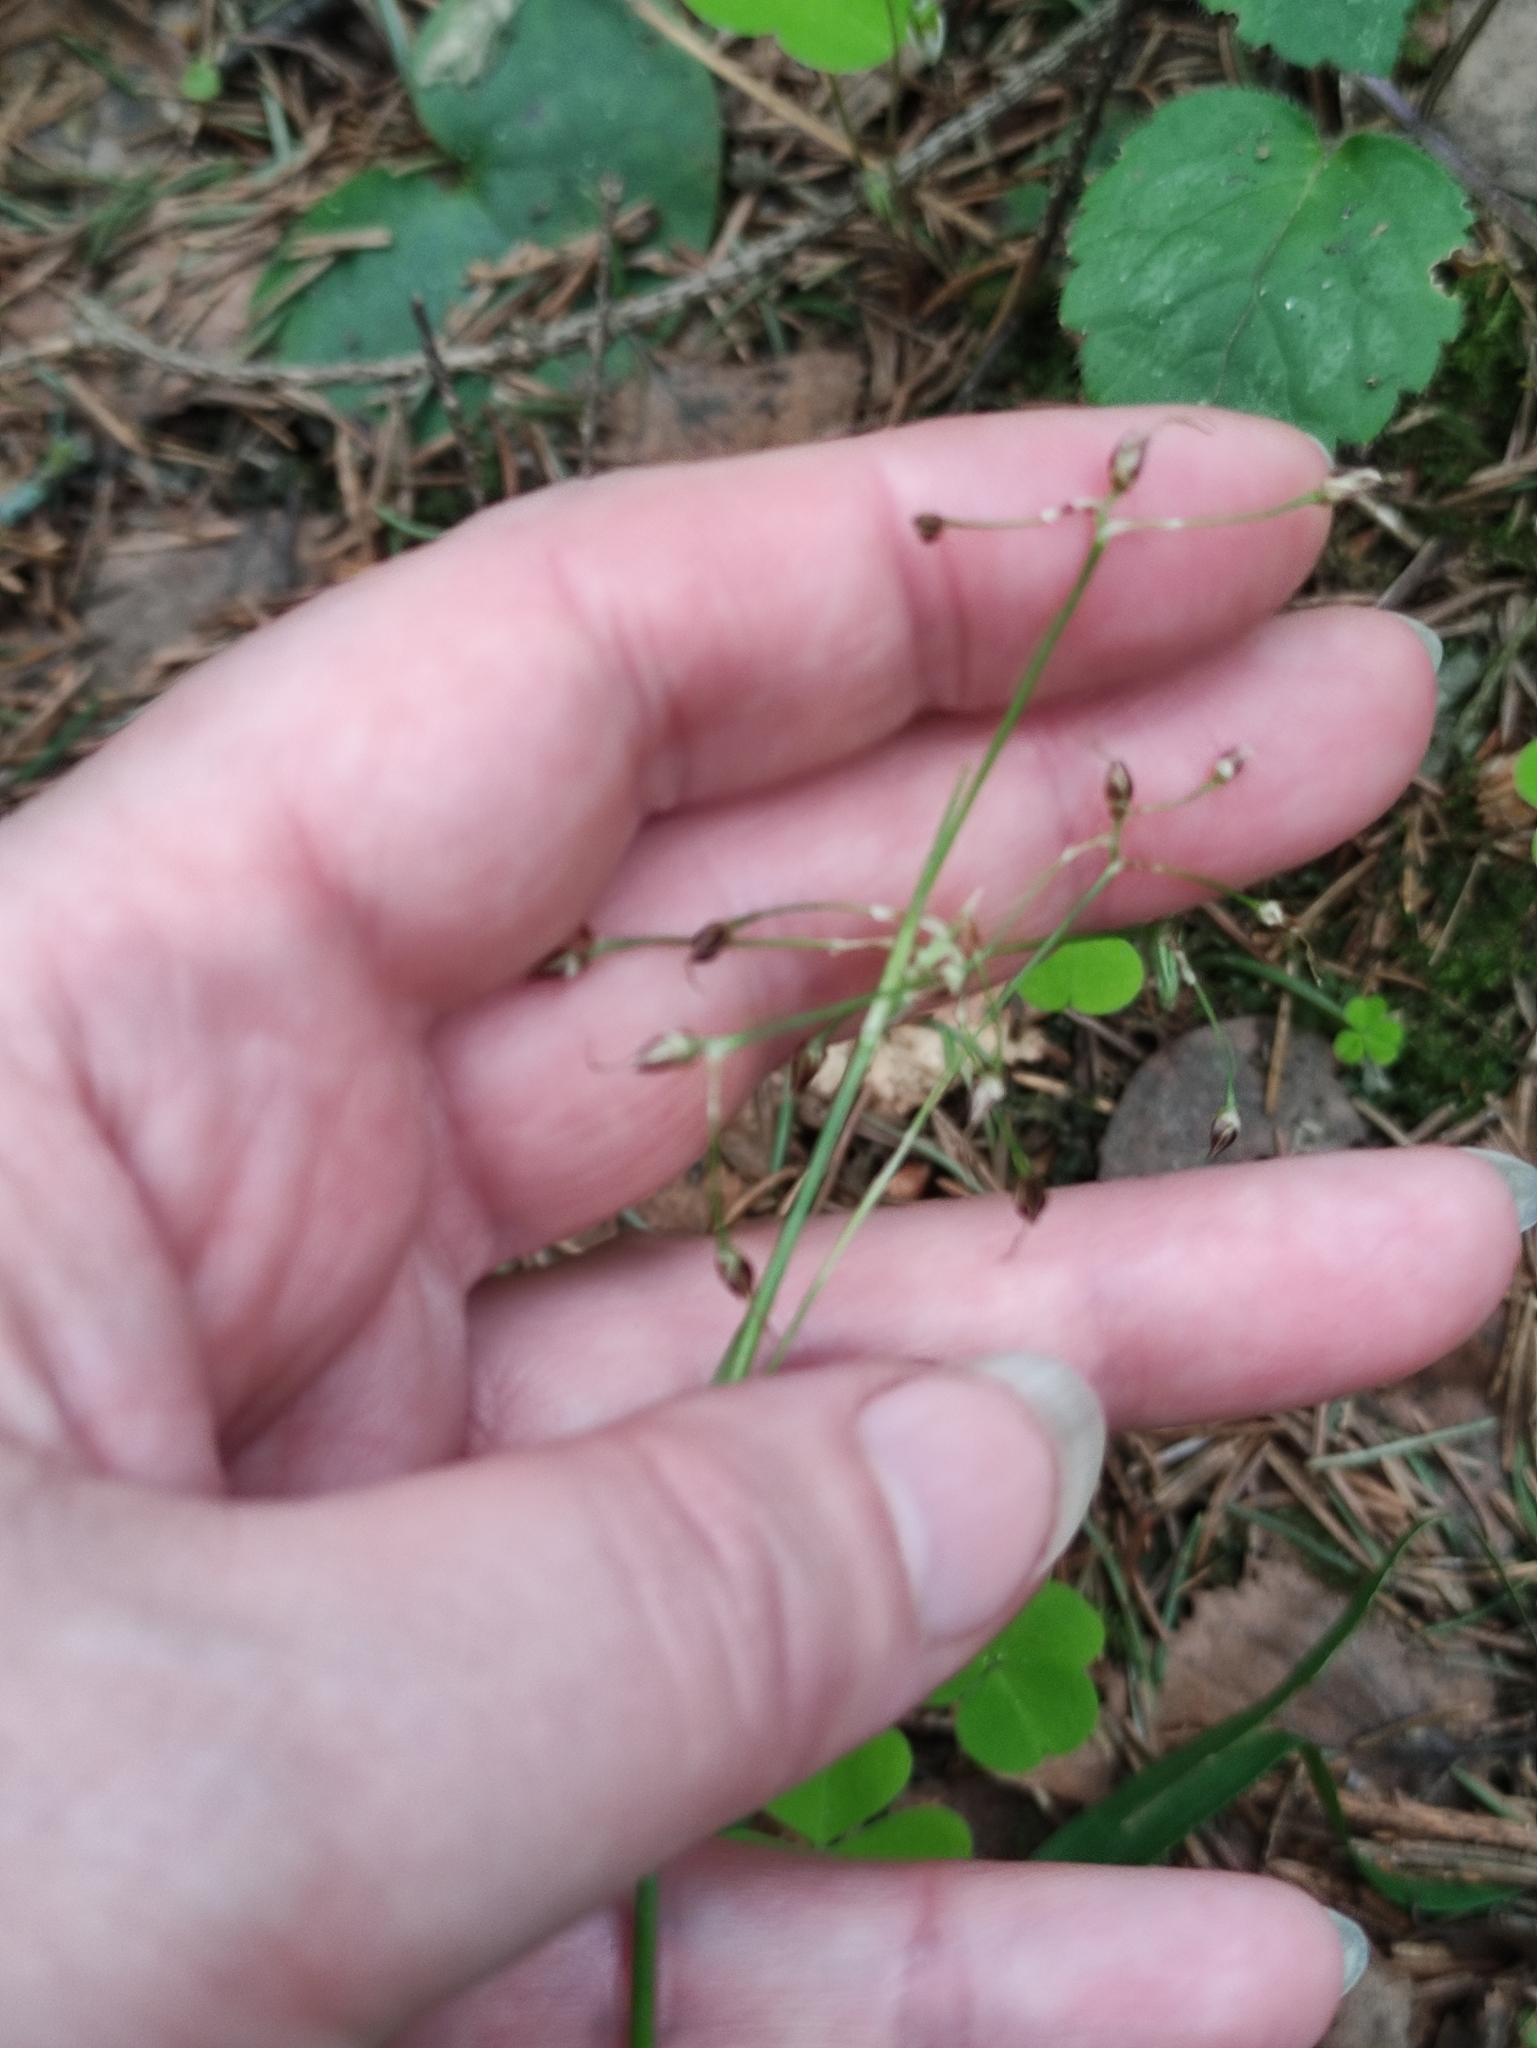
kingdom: Plantae
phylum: Tracheophyta
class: Liliopsida
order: Poales
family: Juncaceae
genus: Luzula
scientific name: Luzula pilosa
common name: Hairy wood-rush
